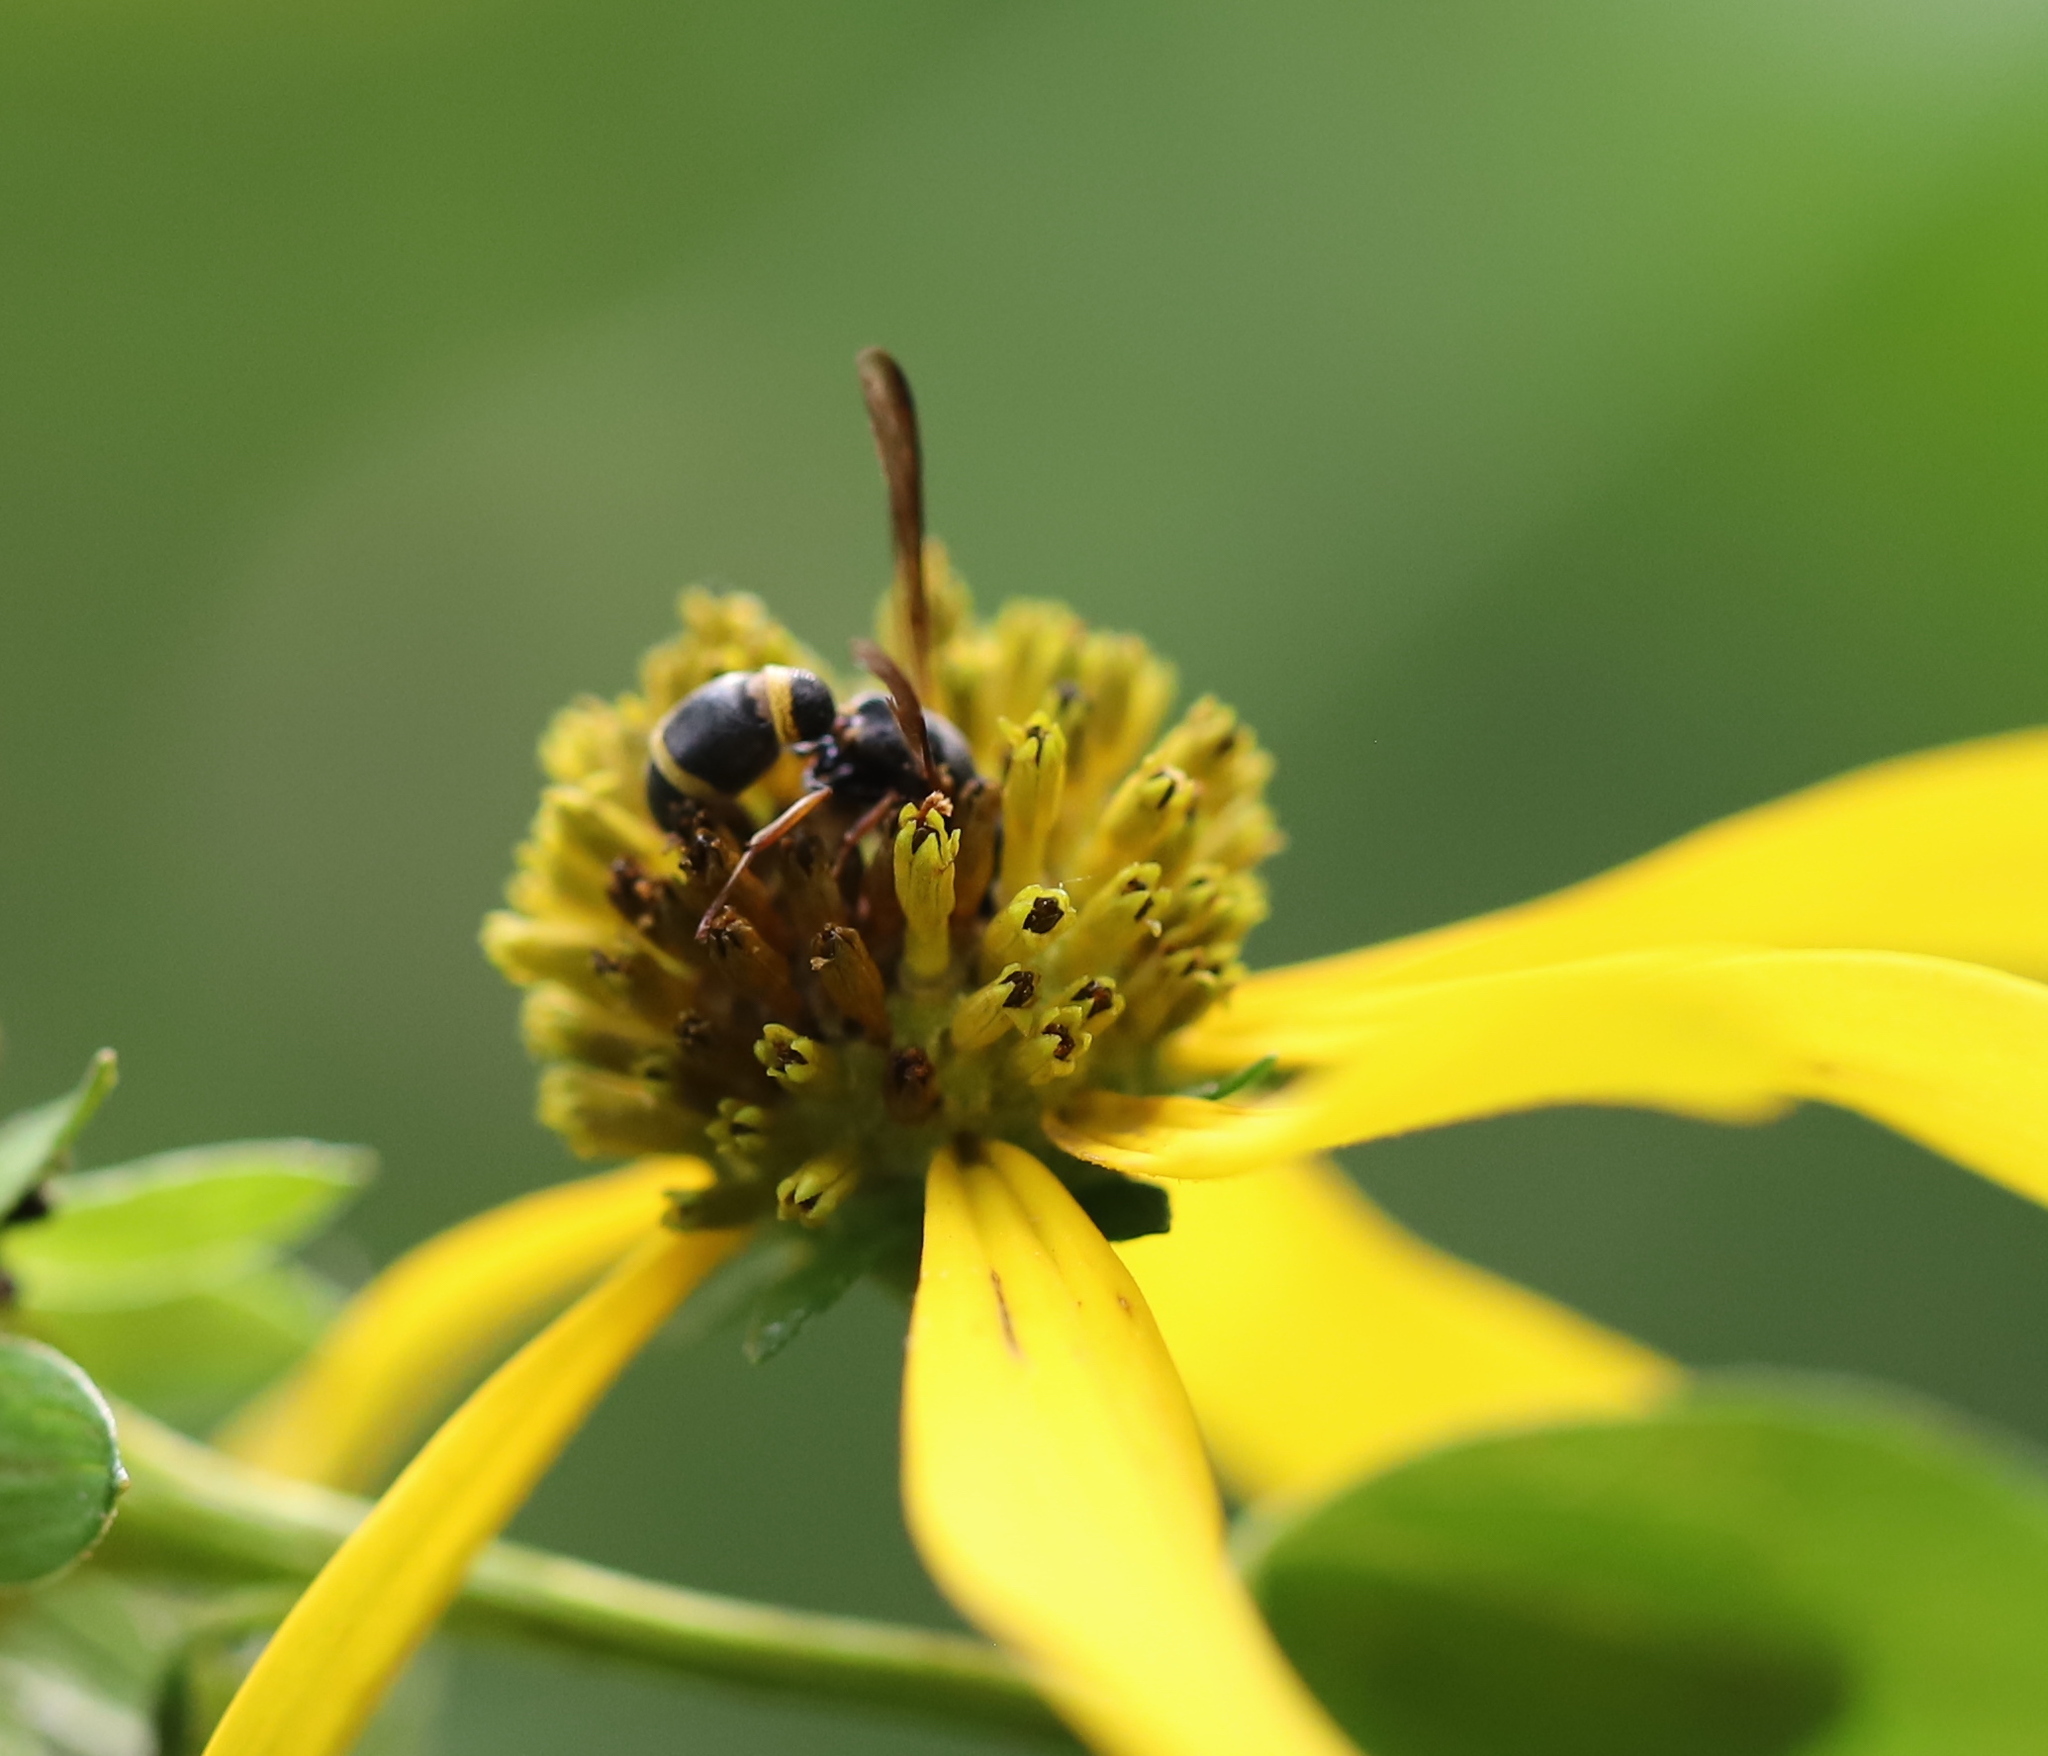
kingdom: Animalia
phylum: Arthropoda
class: Insecta
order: Hymenoptera
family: Eumenidae
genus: Parancistrocerus
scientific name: Parancistrocerus perennis
